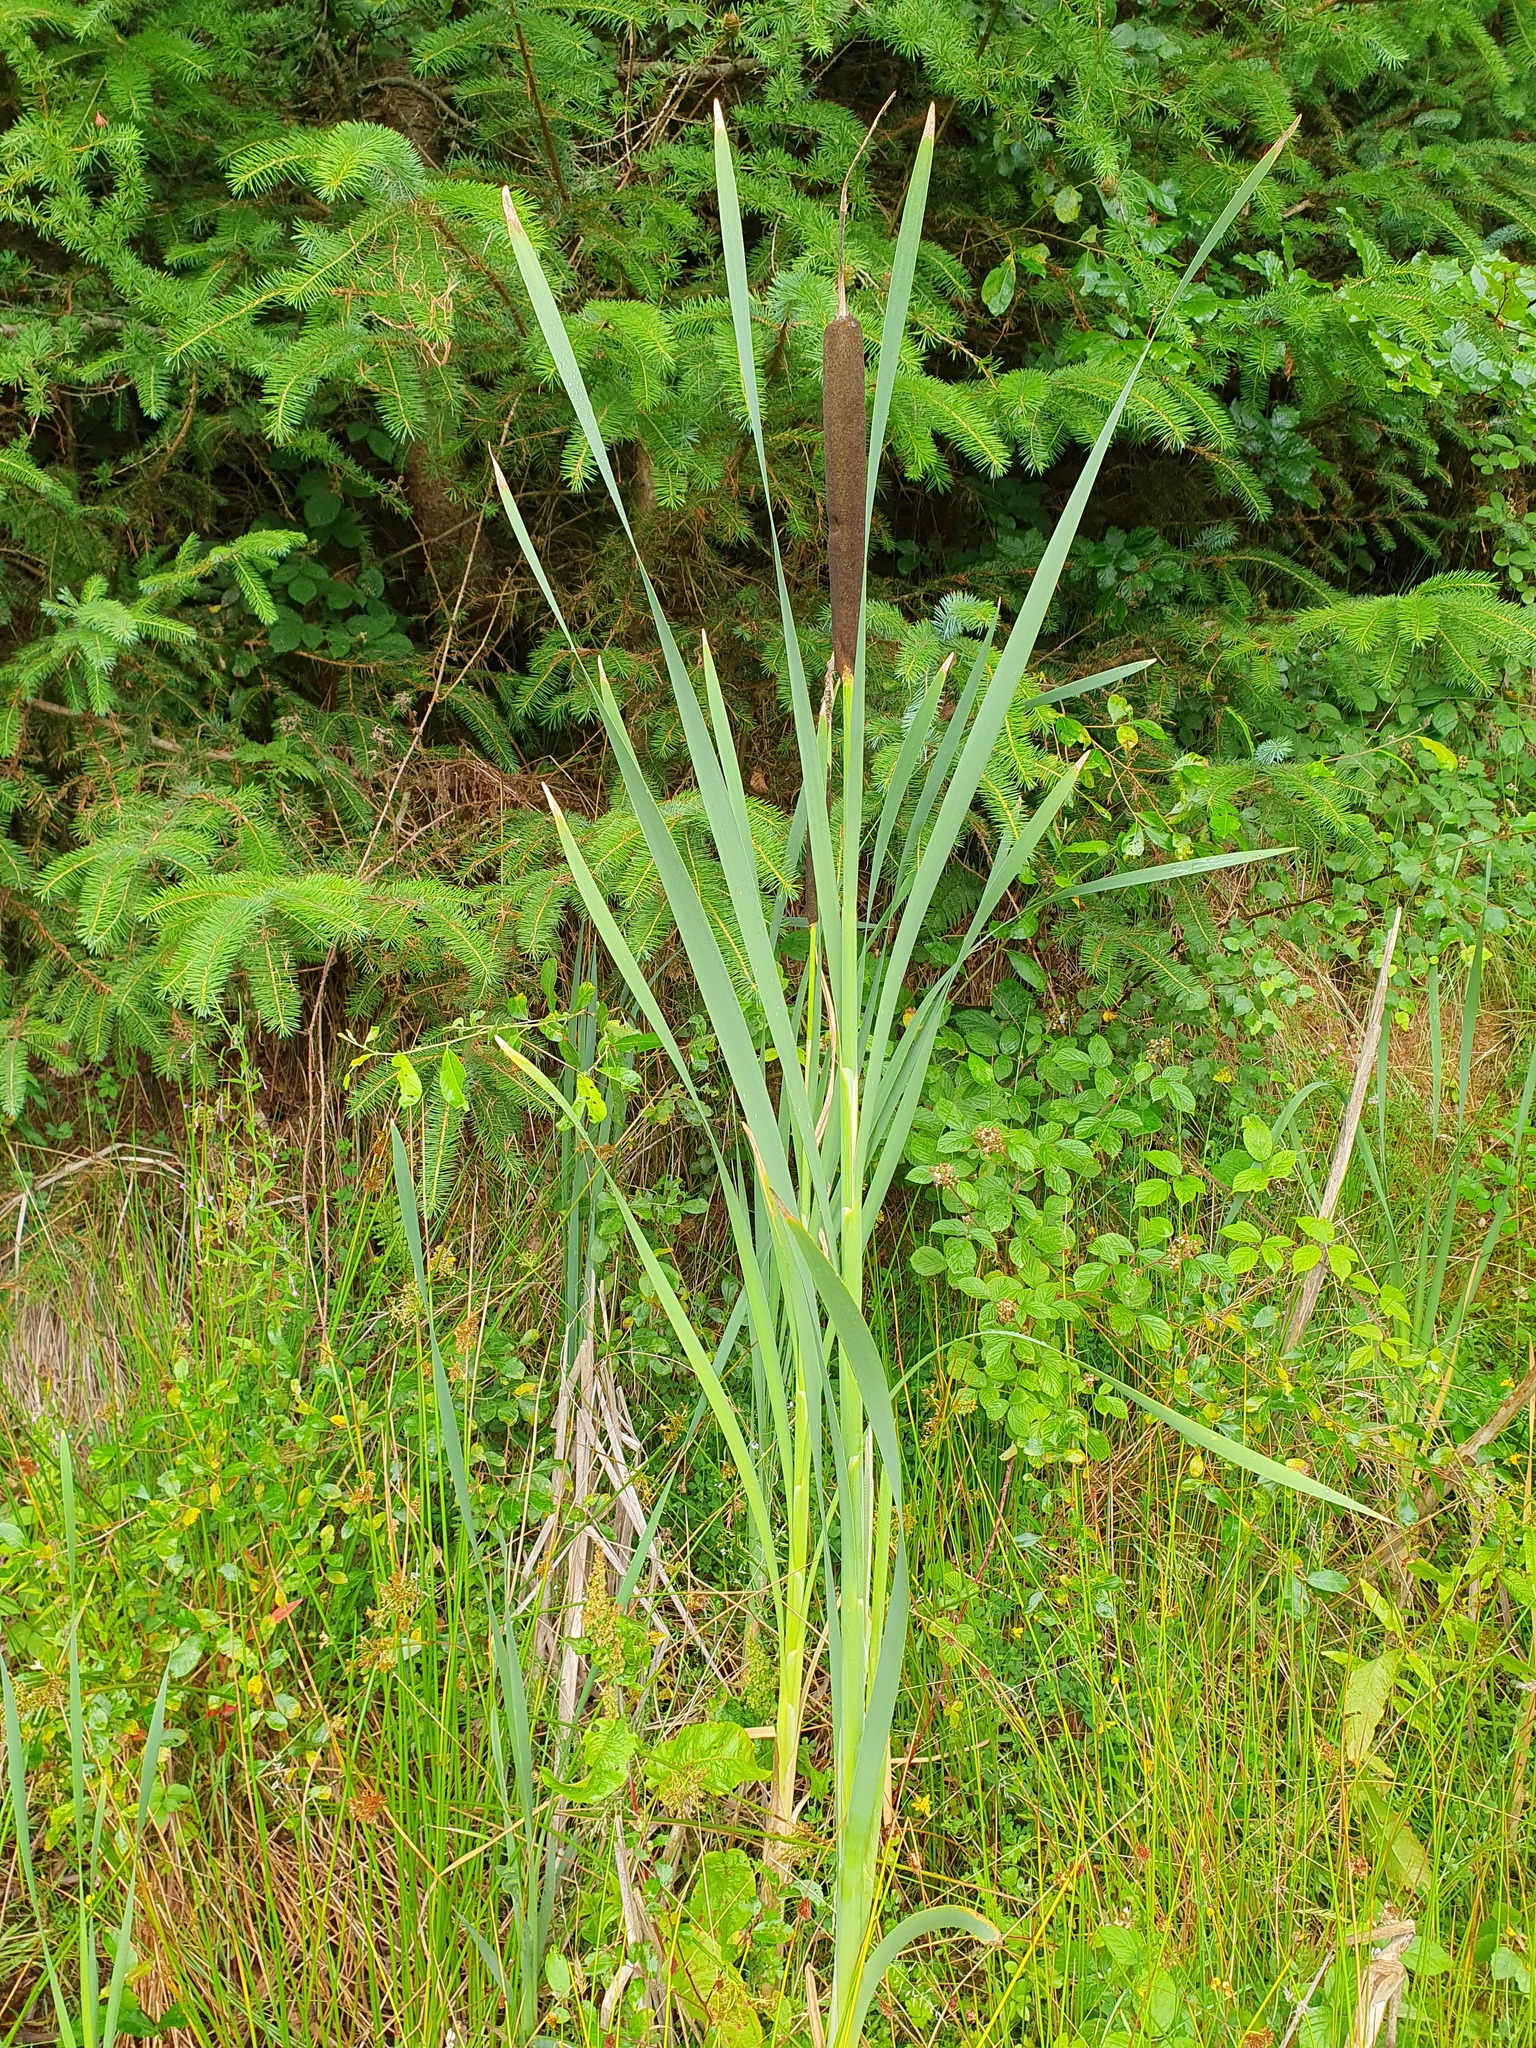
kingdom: Plantae
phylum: Tracheophyta
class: Liliopsida
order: Poales
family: Typhaceae
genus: Typha
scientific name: Typha latifolia
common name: Broadleaf cattail
